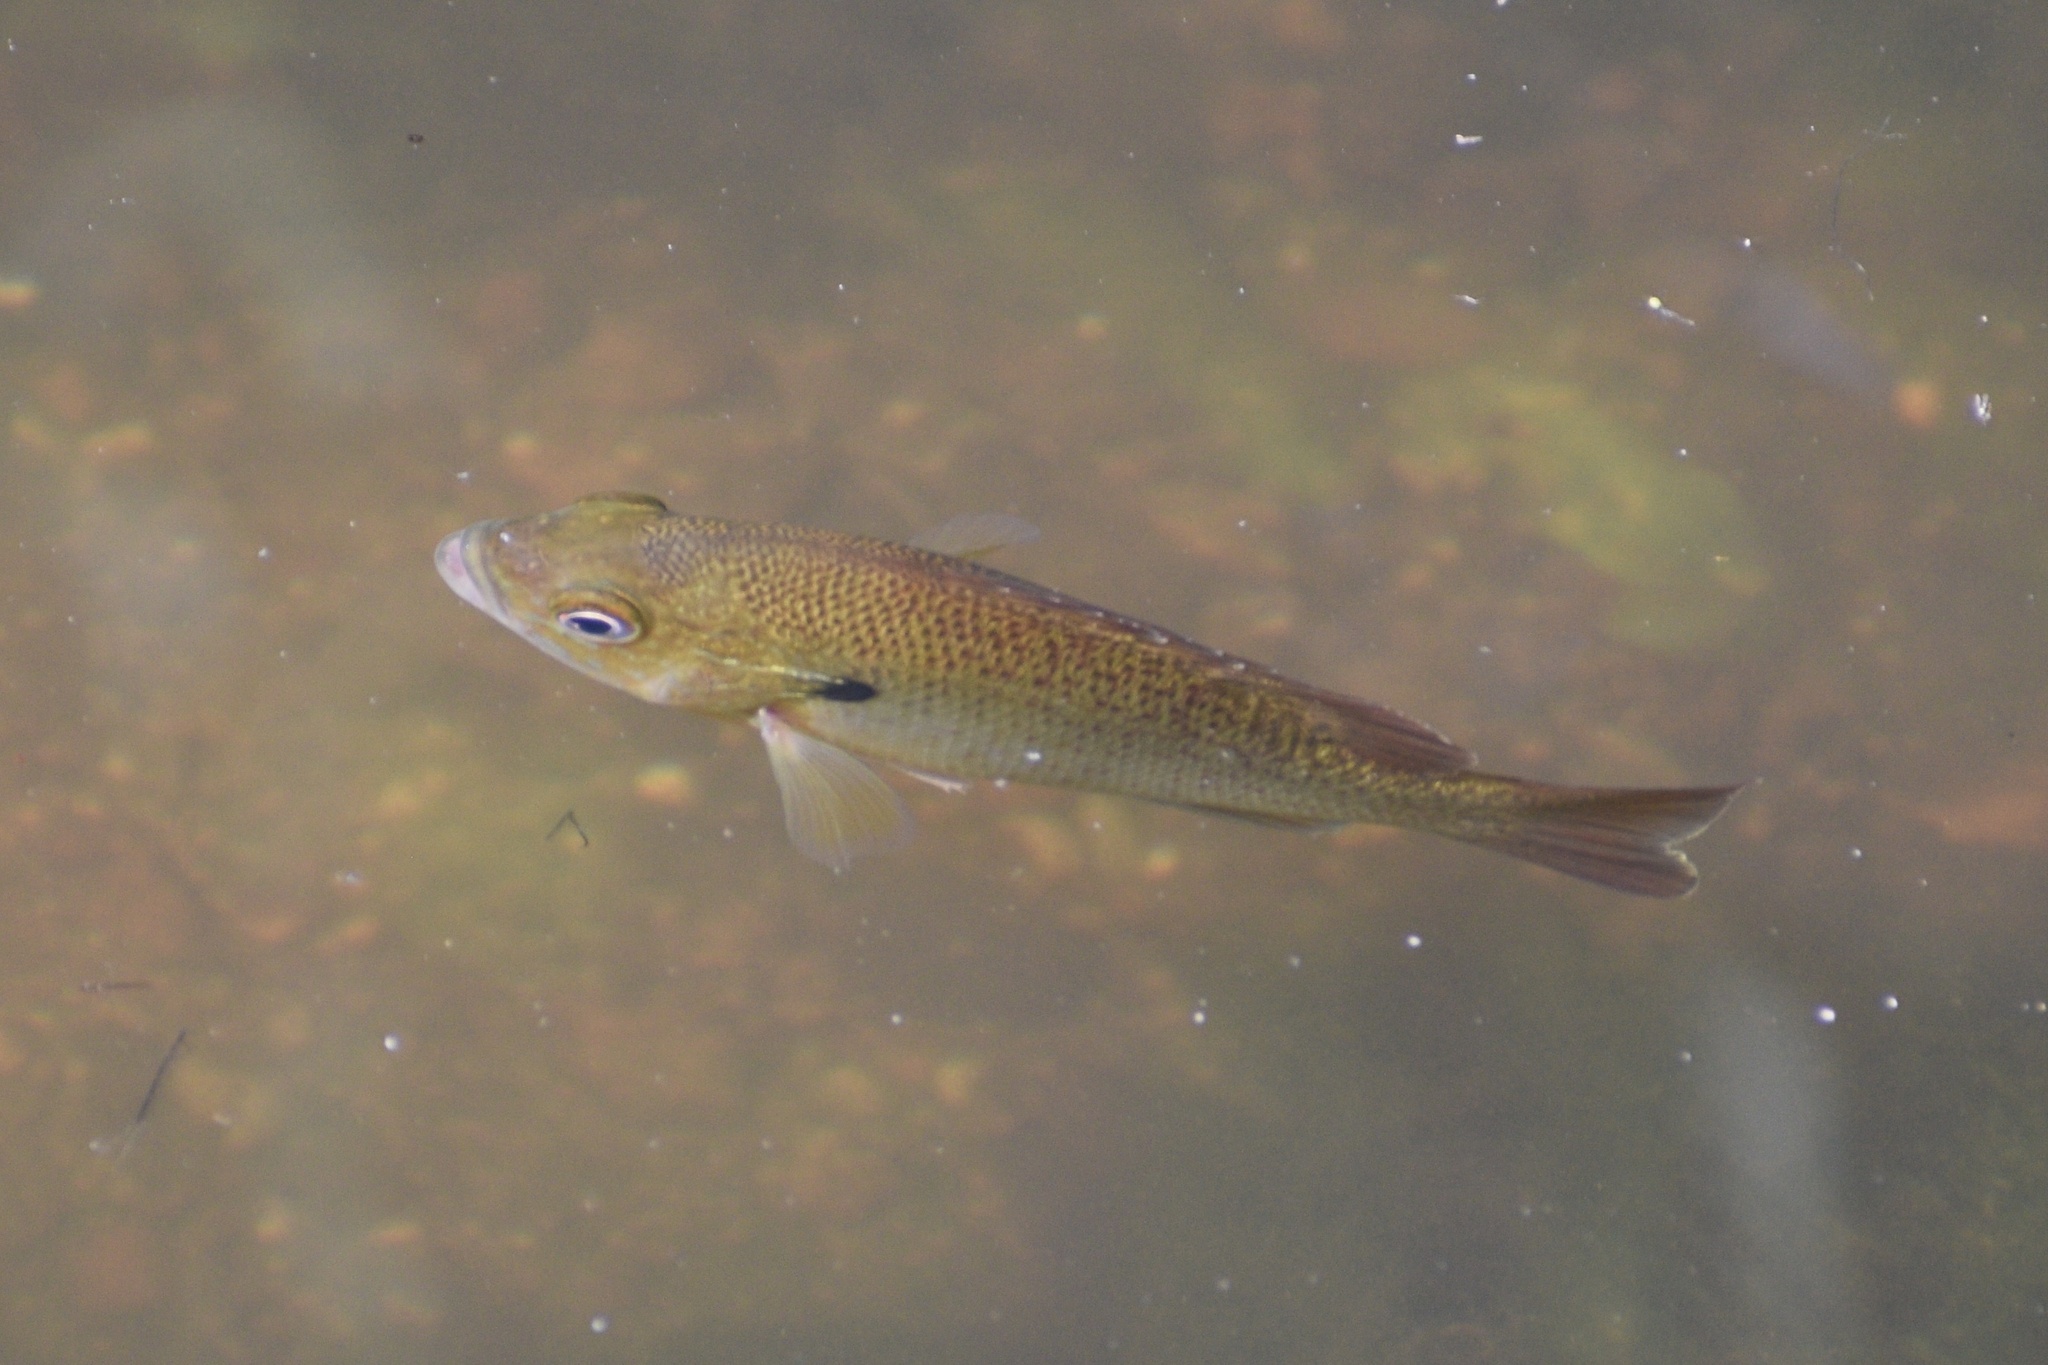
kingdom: Animalia
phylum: Chordata
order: Perciformes
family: Centrarchidae
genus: Lepomis
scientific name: Lepomis auritus
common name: Redbreast sunfish
